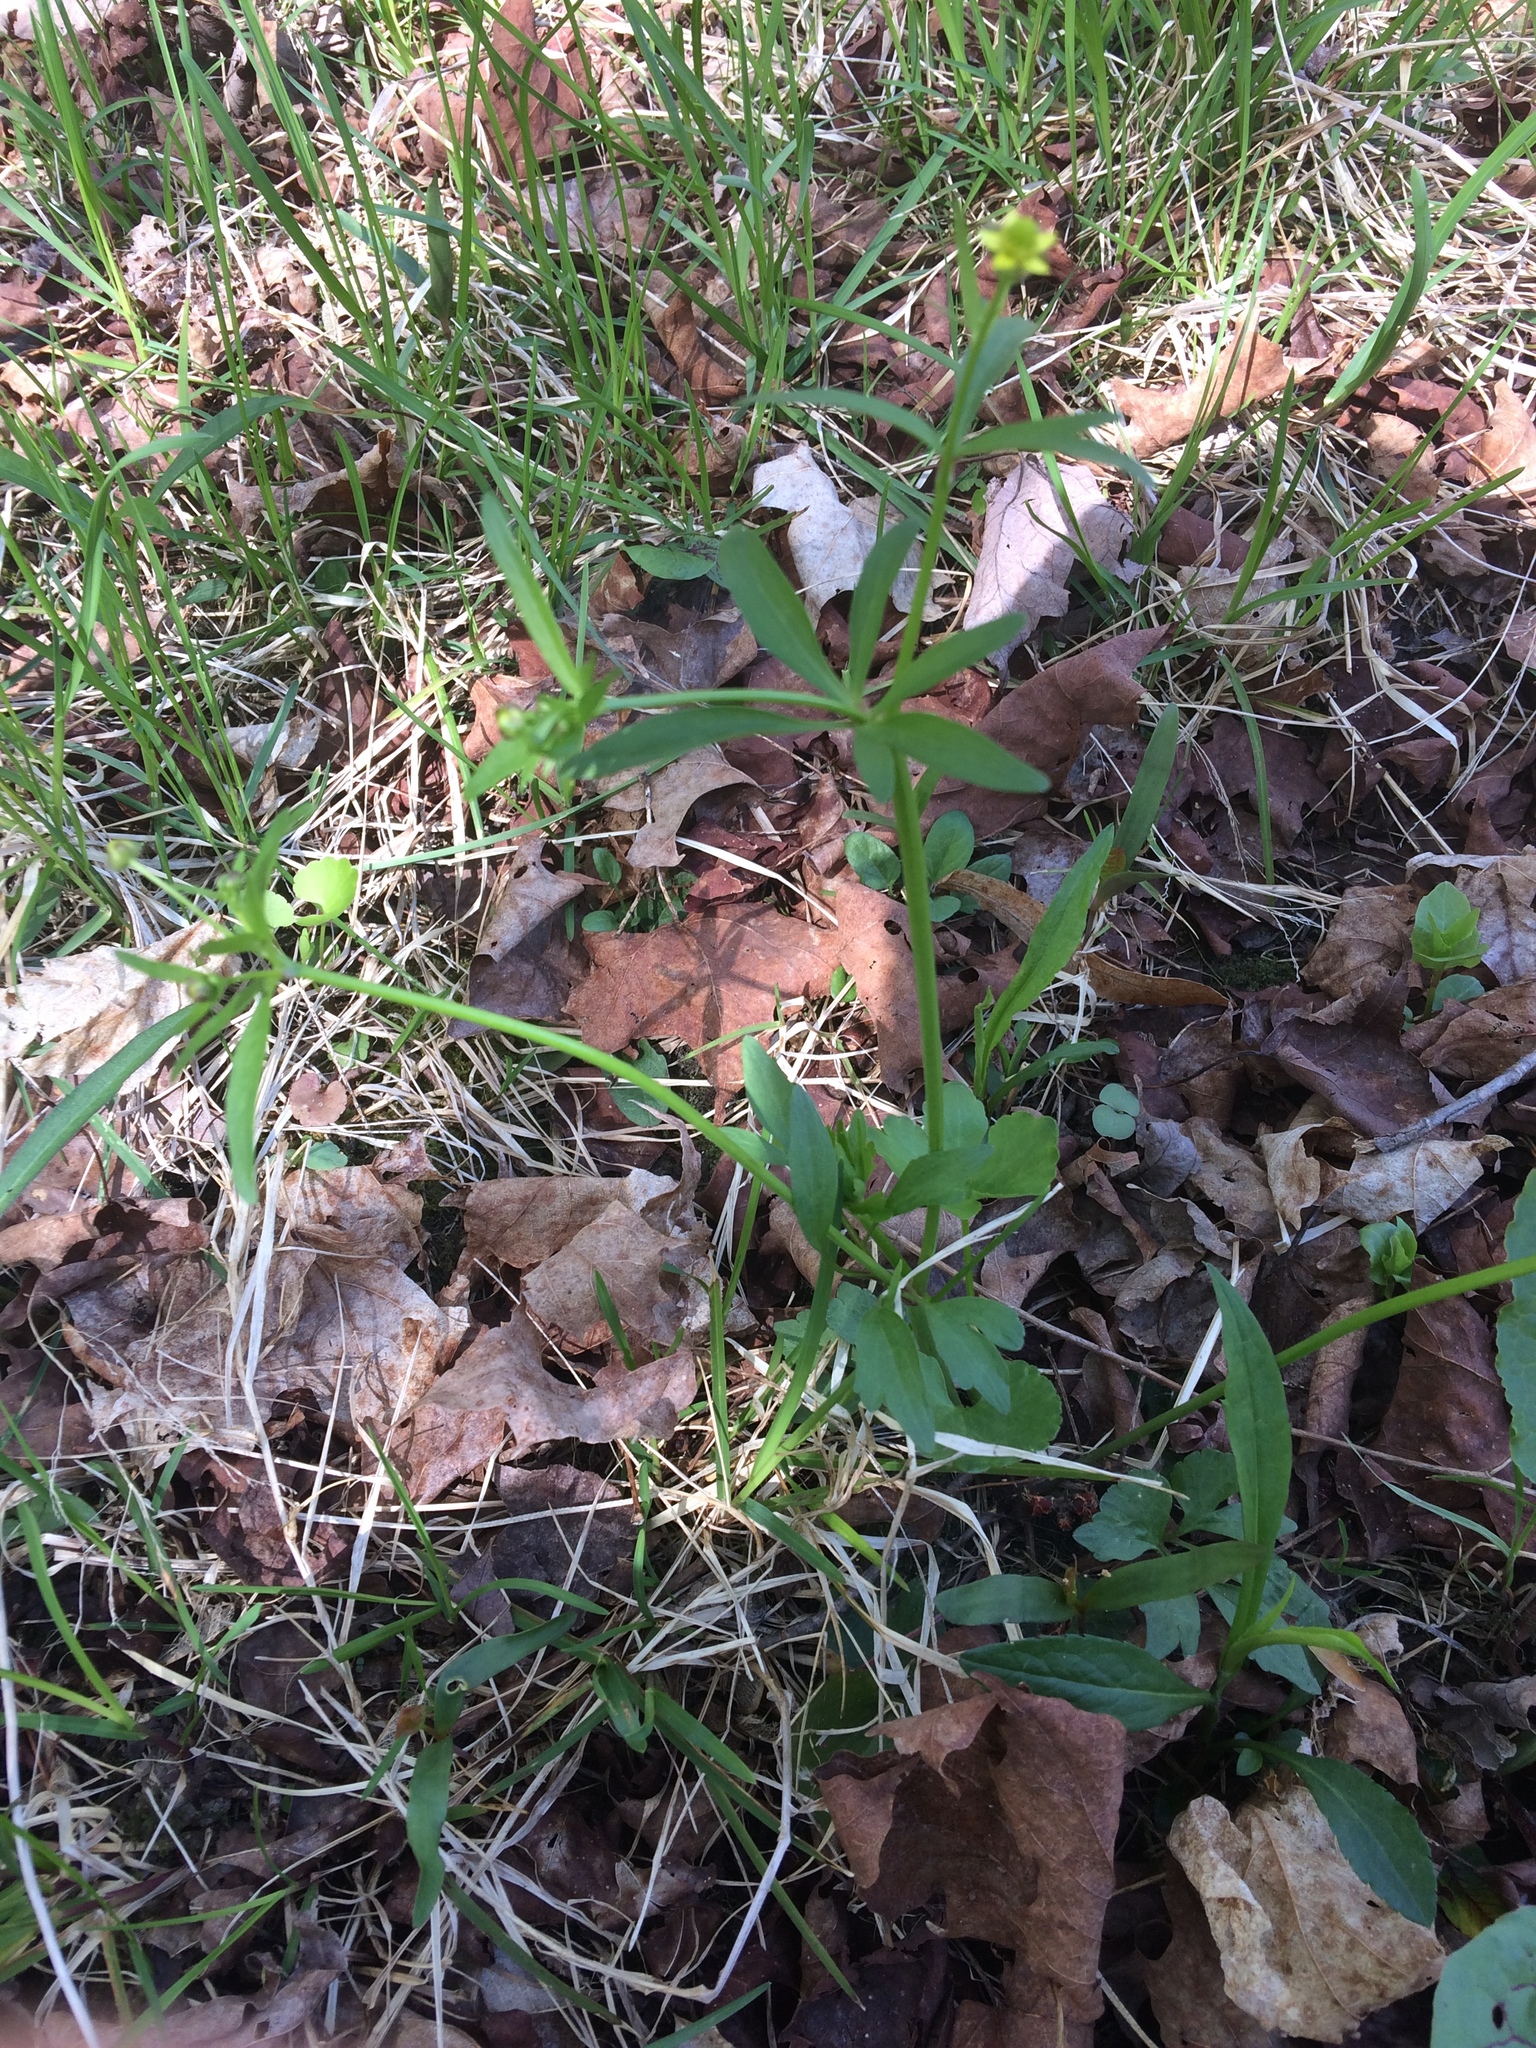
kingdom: Plantae
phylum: Tracheophyta
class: Magnoliopsida
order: Ranunculales
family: Ranunculaceae
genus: Ranunculus
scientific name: Ranunculus abortivus
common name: Early wood buttercup
